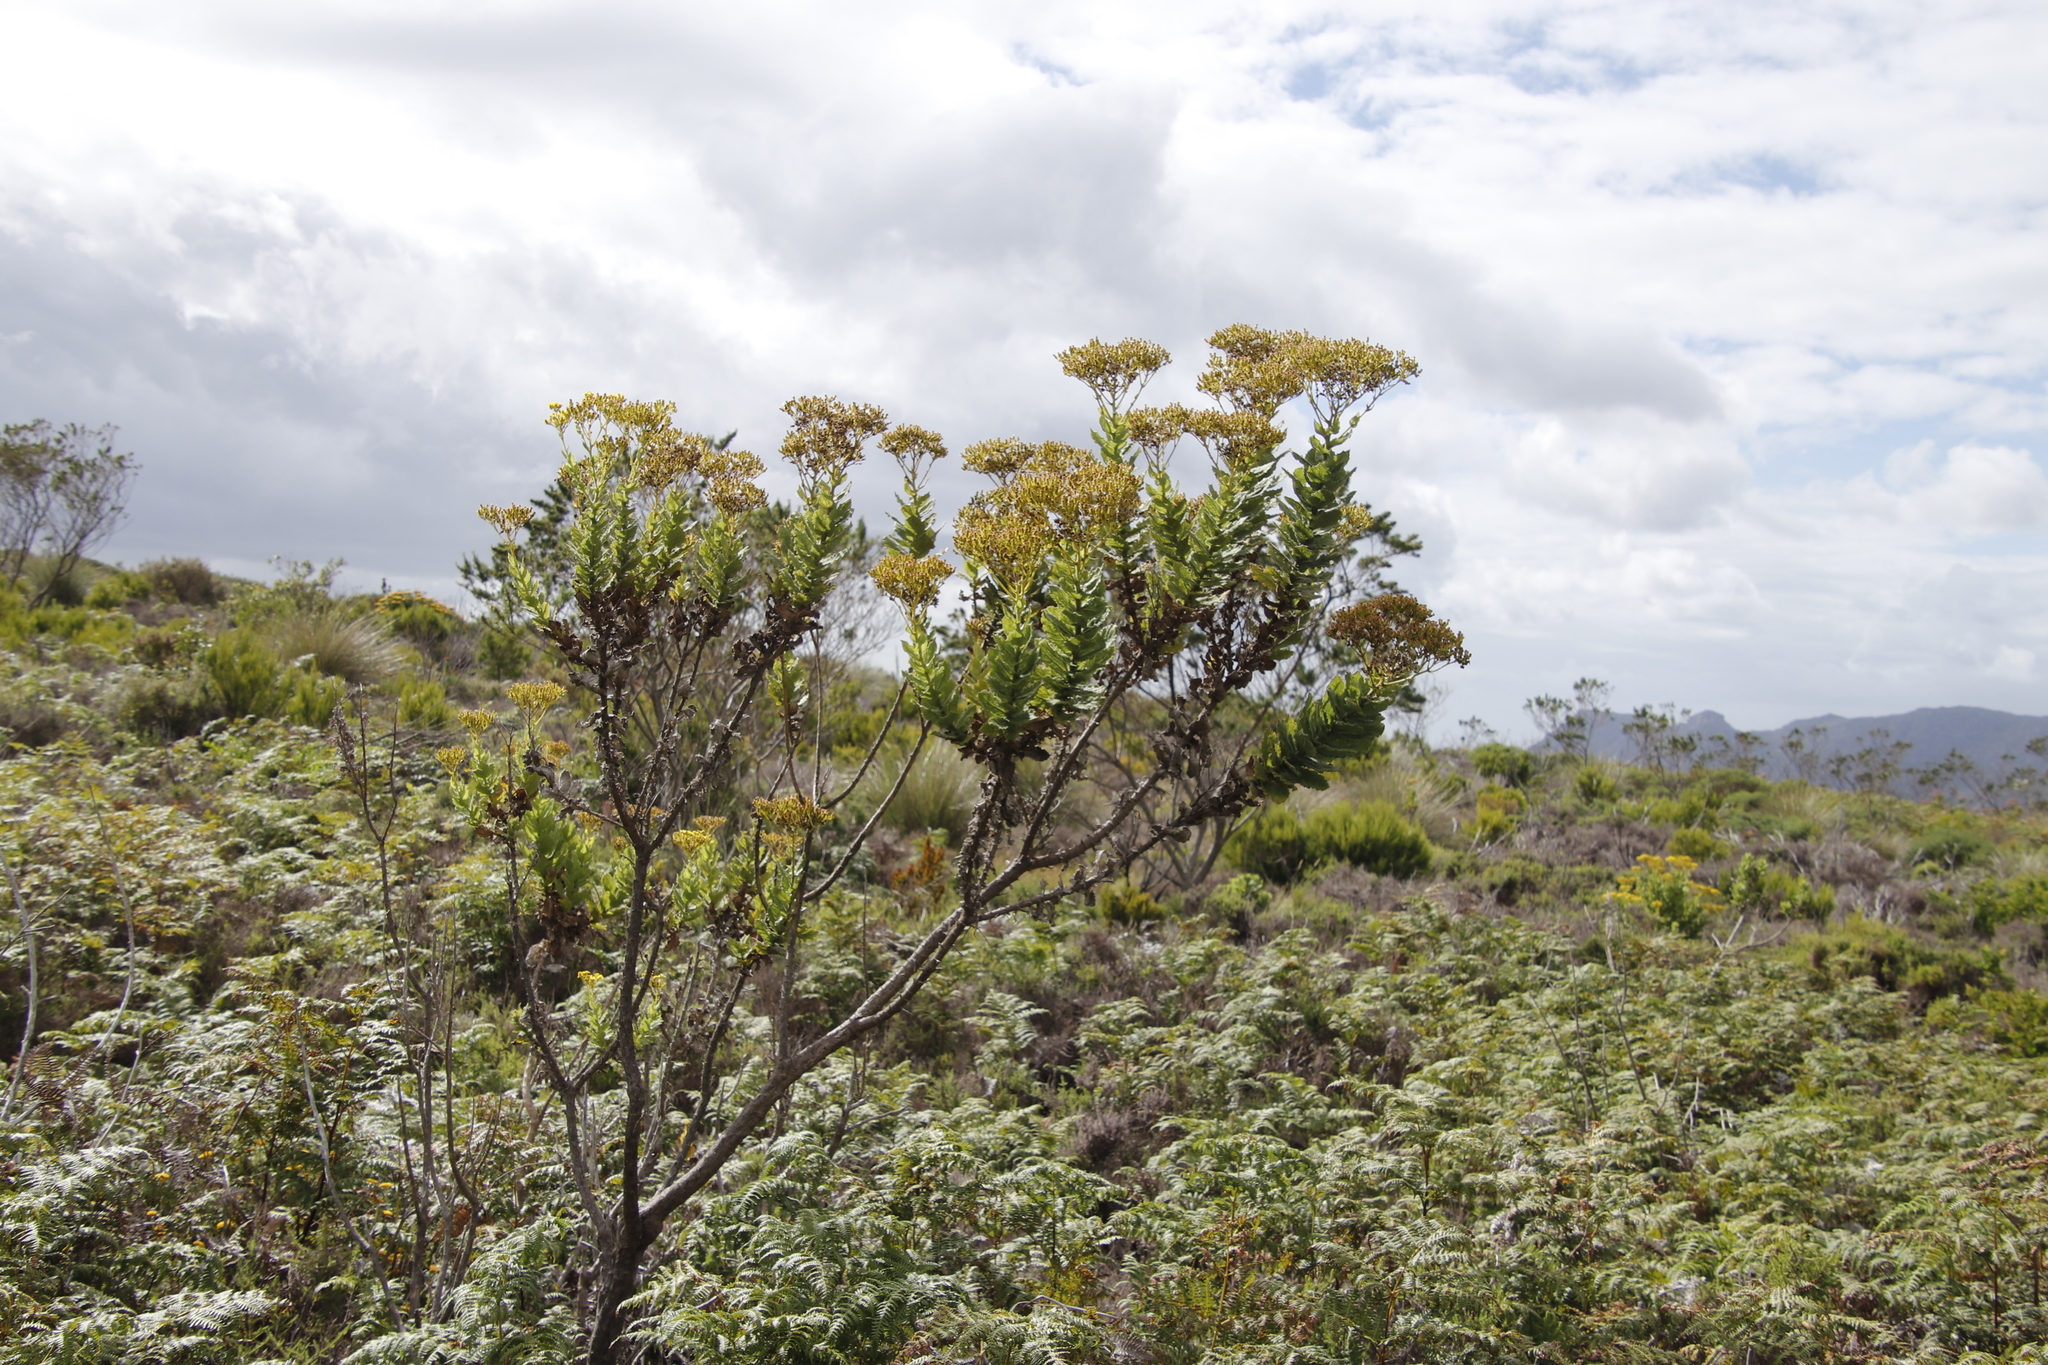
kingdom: Plantae
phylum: Tracheophyta
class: Magnoliopsida
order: Asterales
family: Asteraceae
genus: Senecio
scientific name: Senecio rigidus
